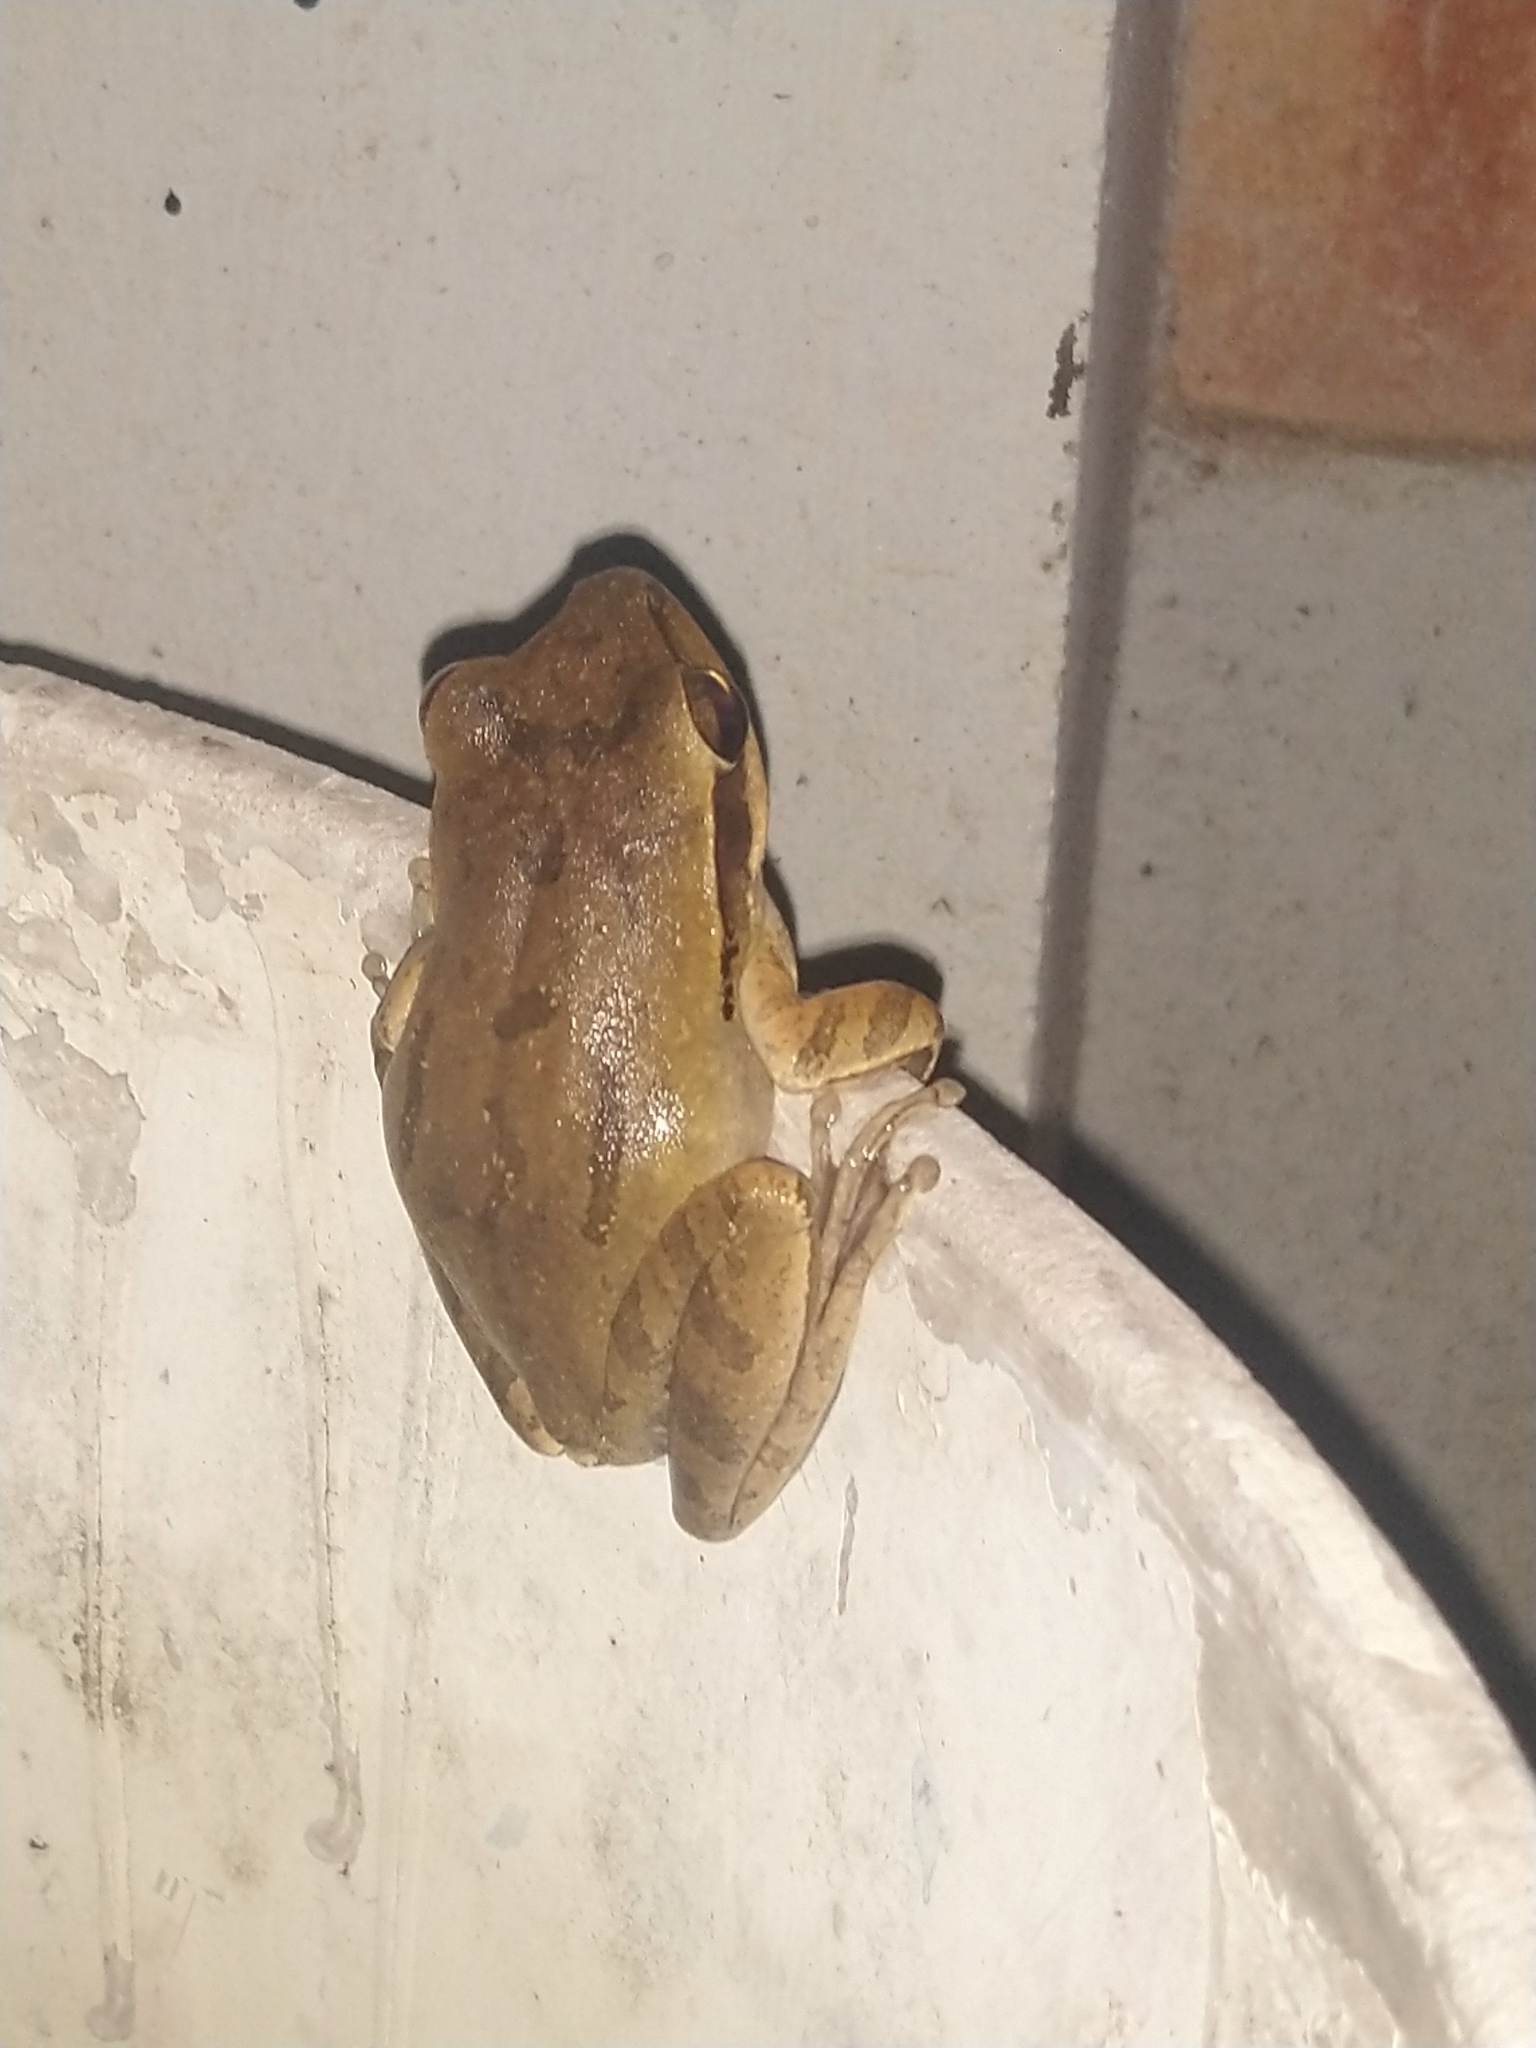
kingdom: Animalia
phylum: Chordata
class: Amphibia
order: Anura
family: Rhacophoridae
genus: Polypedates
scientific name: Polypedates maculatus
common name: Himalayan tree frog
